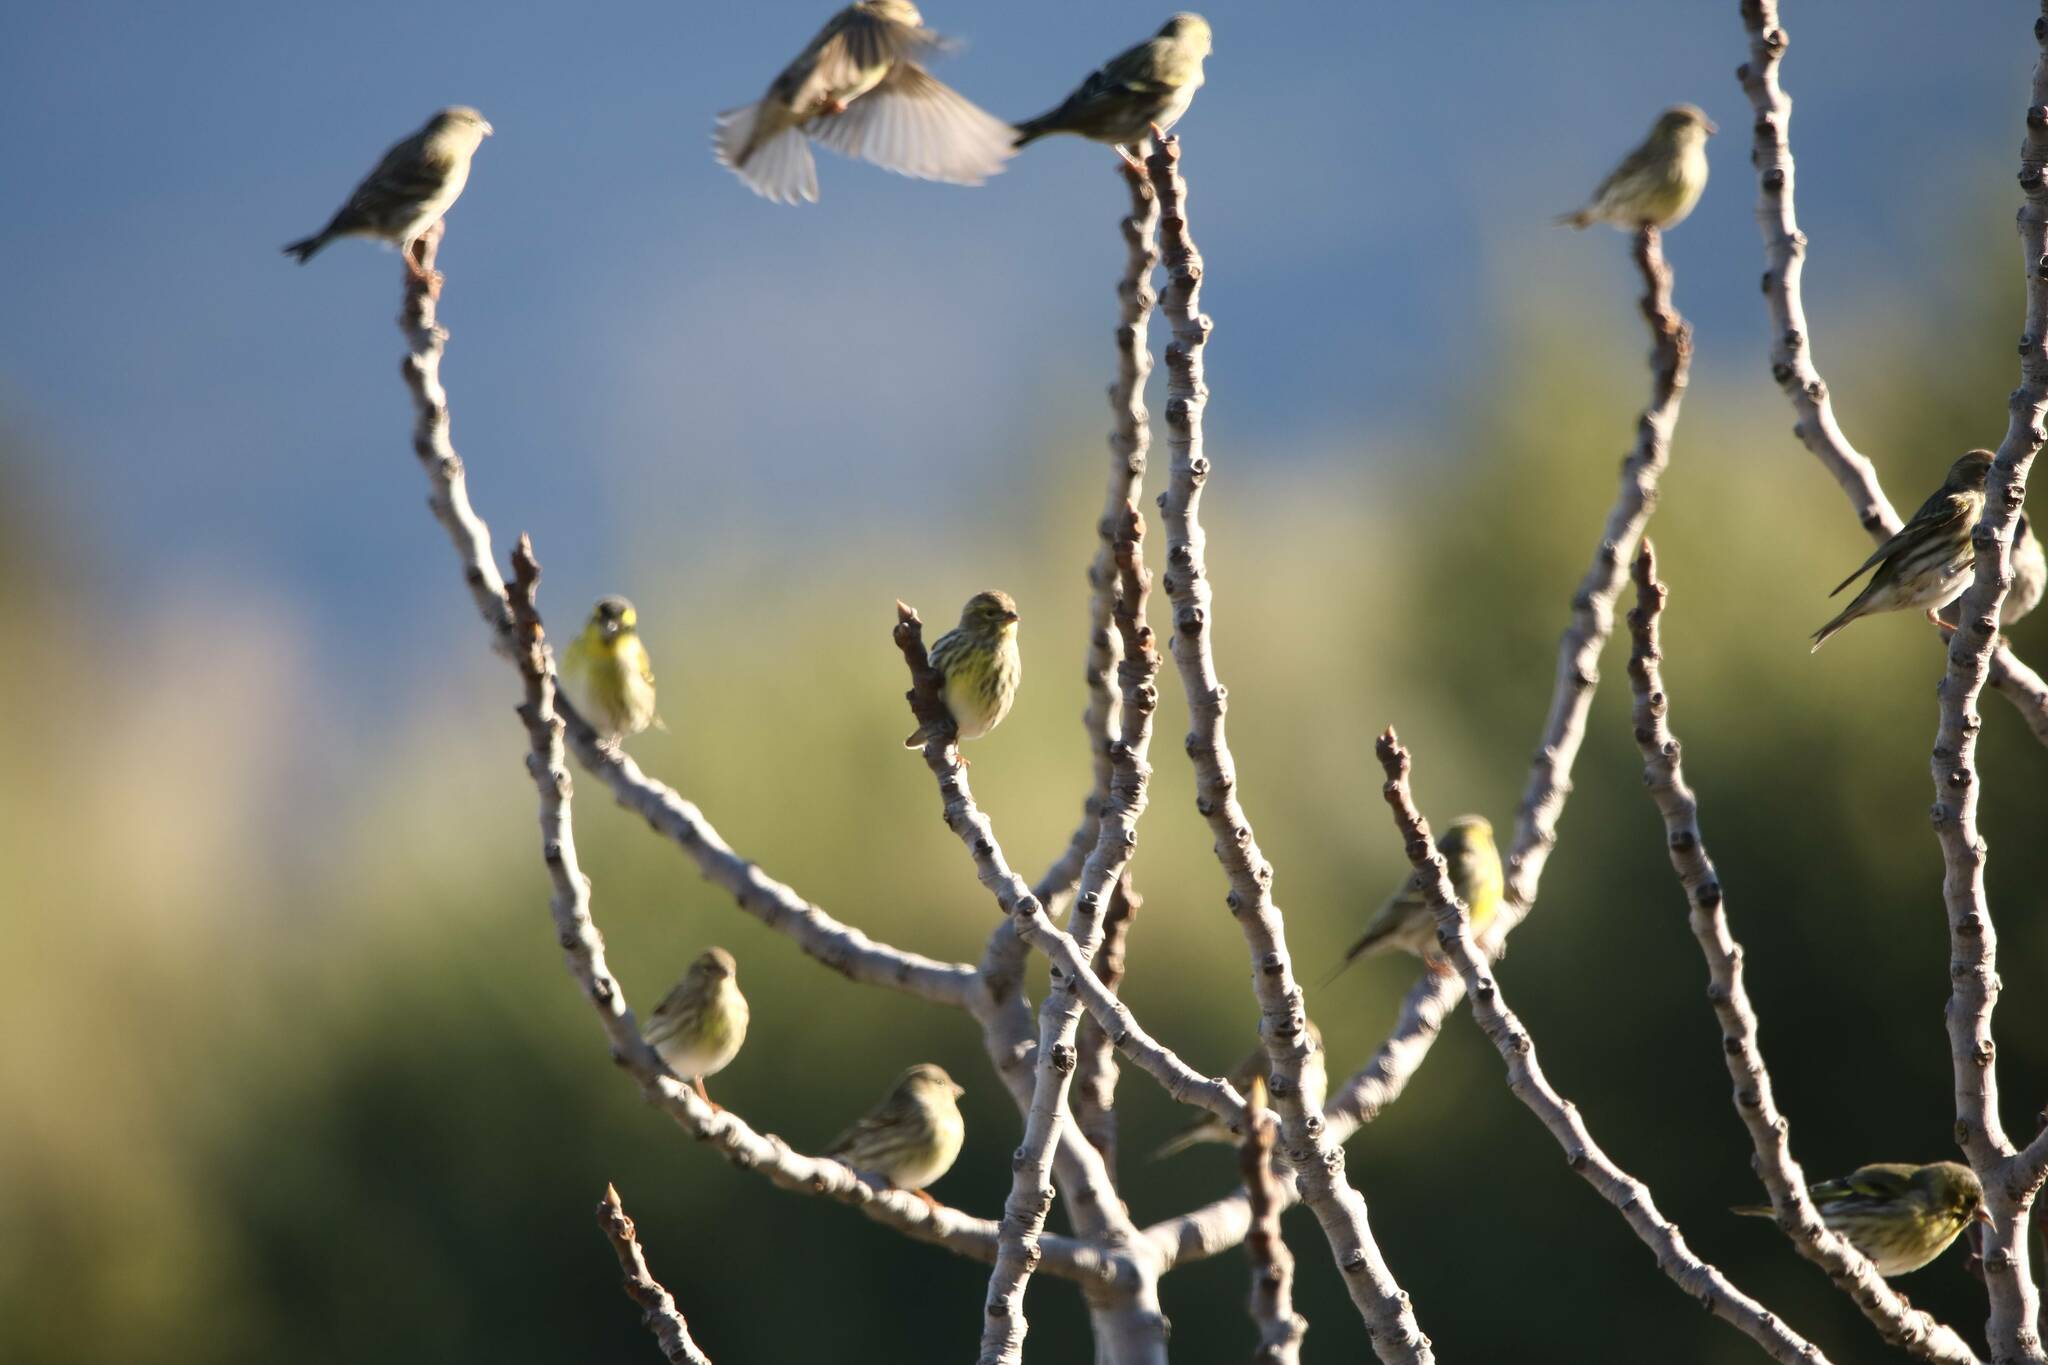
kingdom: Animalia
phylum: Chordata
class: Aves
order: Passeriformes
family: Fringillidae
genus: Spinus
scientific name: Spinus spinus
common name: Eurasian siskin
